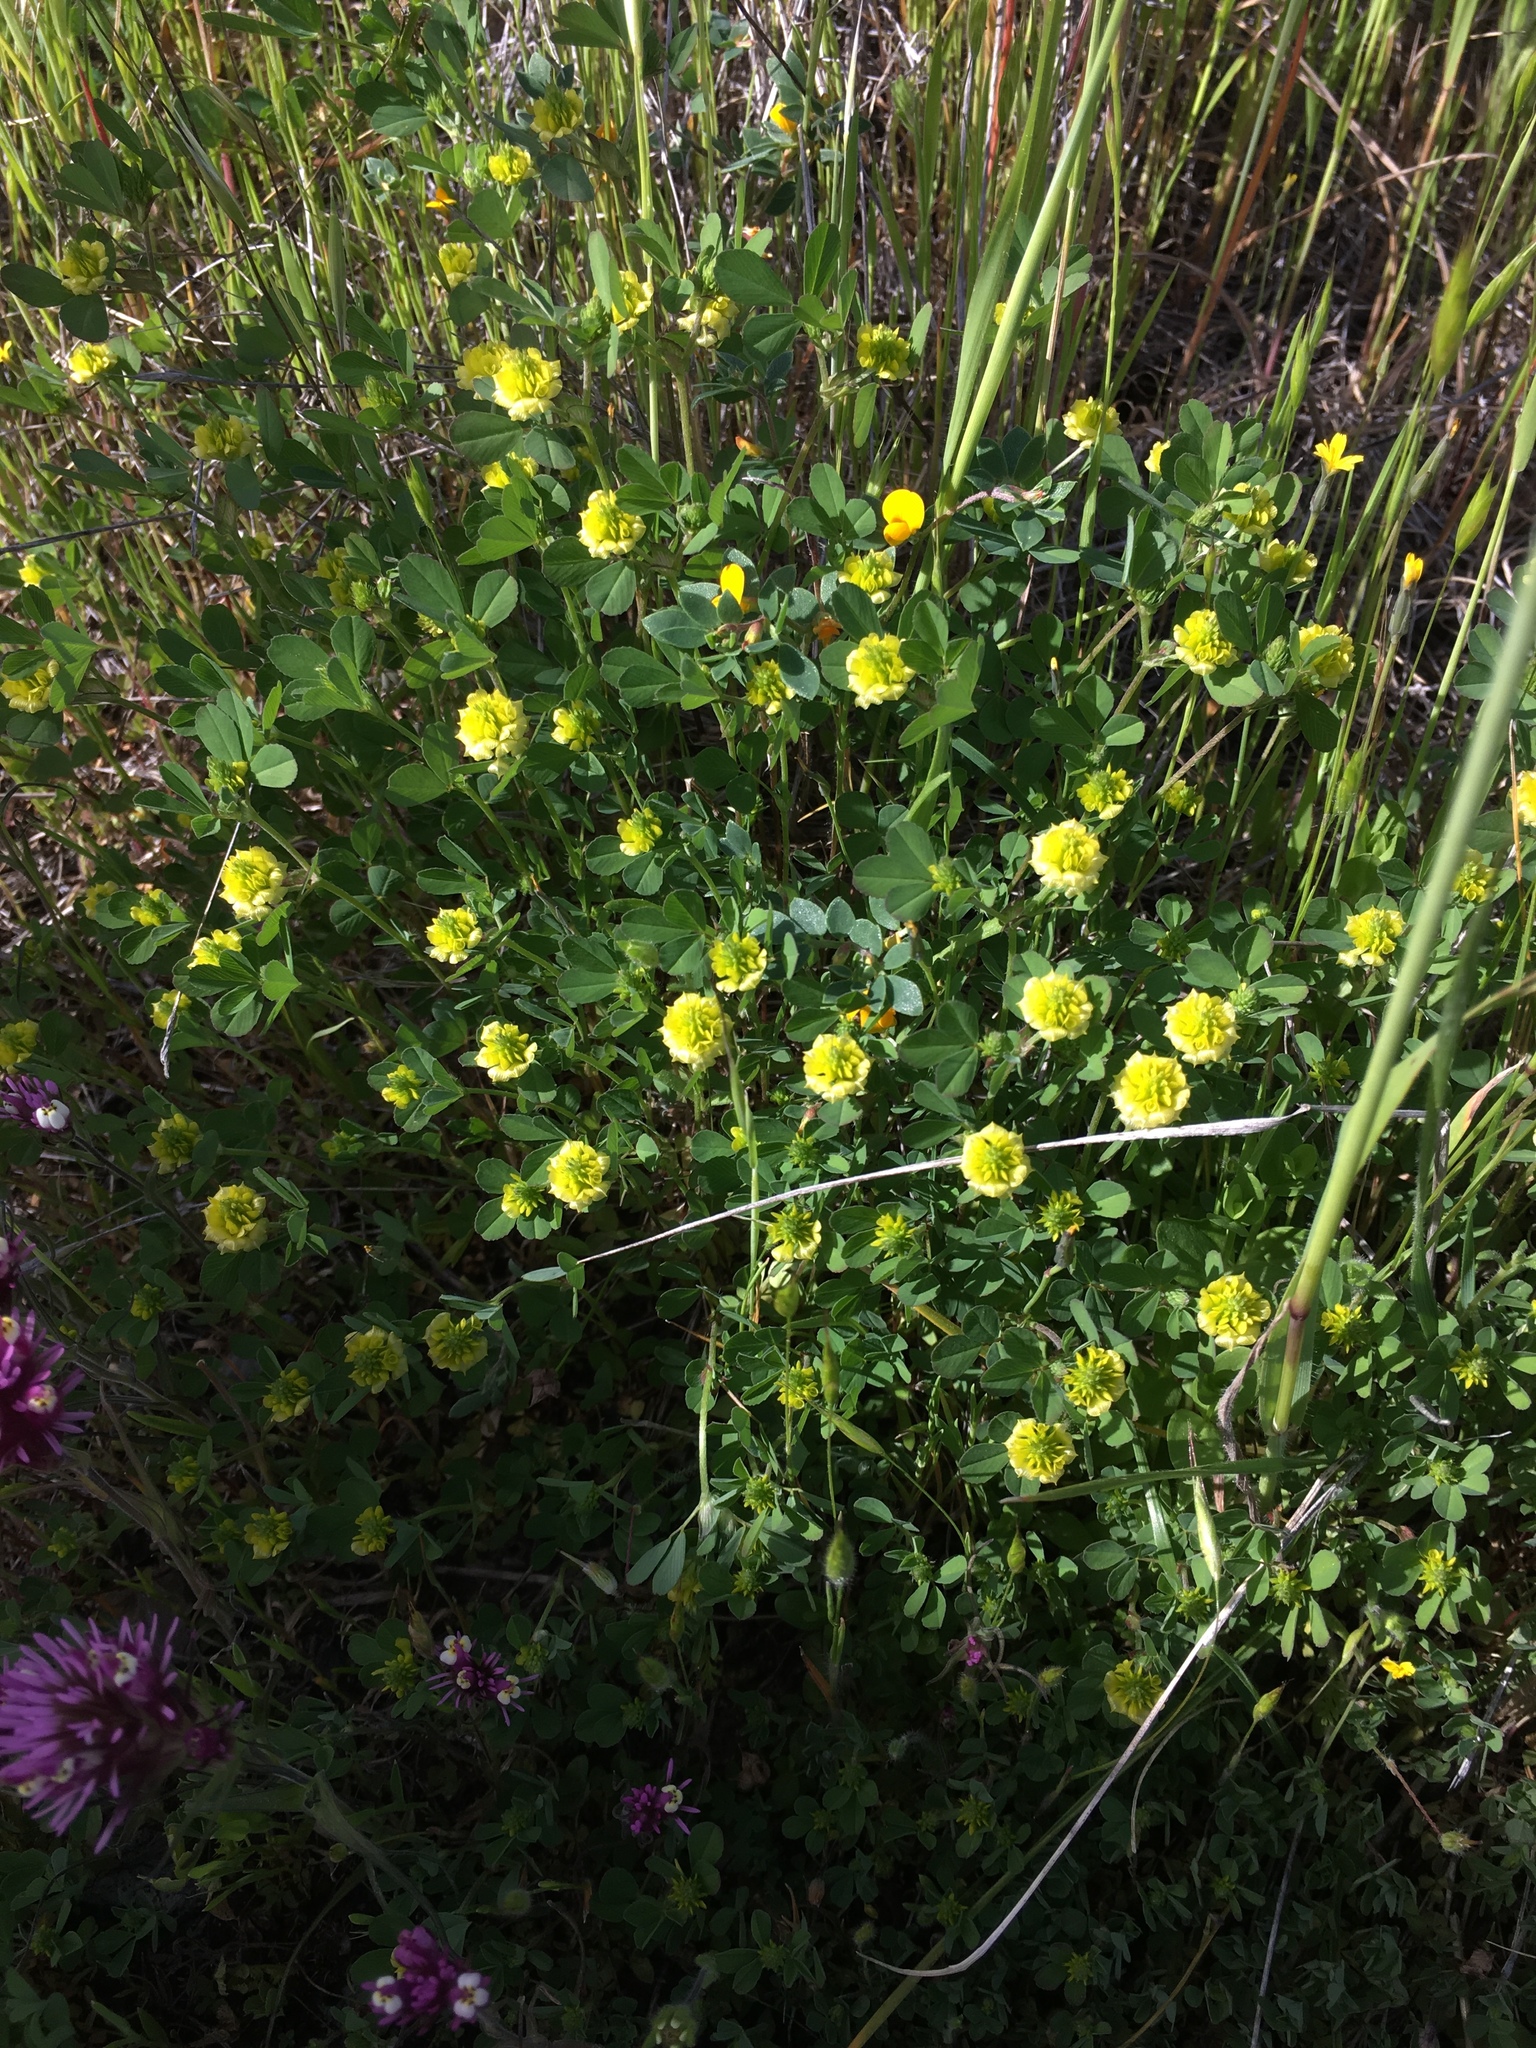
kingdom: Plantae
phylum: Tracheophyta
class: Magnoliopsida
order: Fabales
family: Fabaceae
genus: Trifolium
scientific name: Trifolium campestre
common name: Field clover
